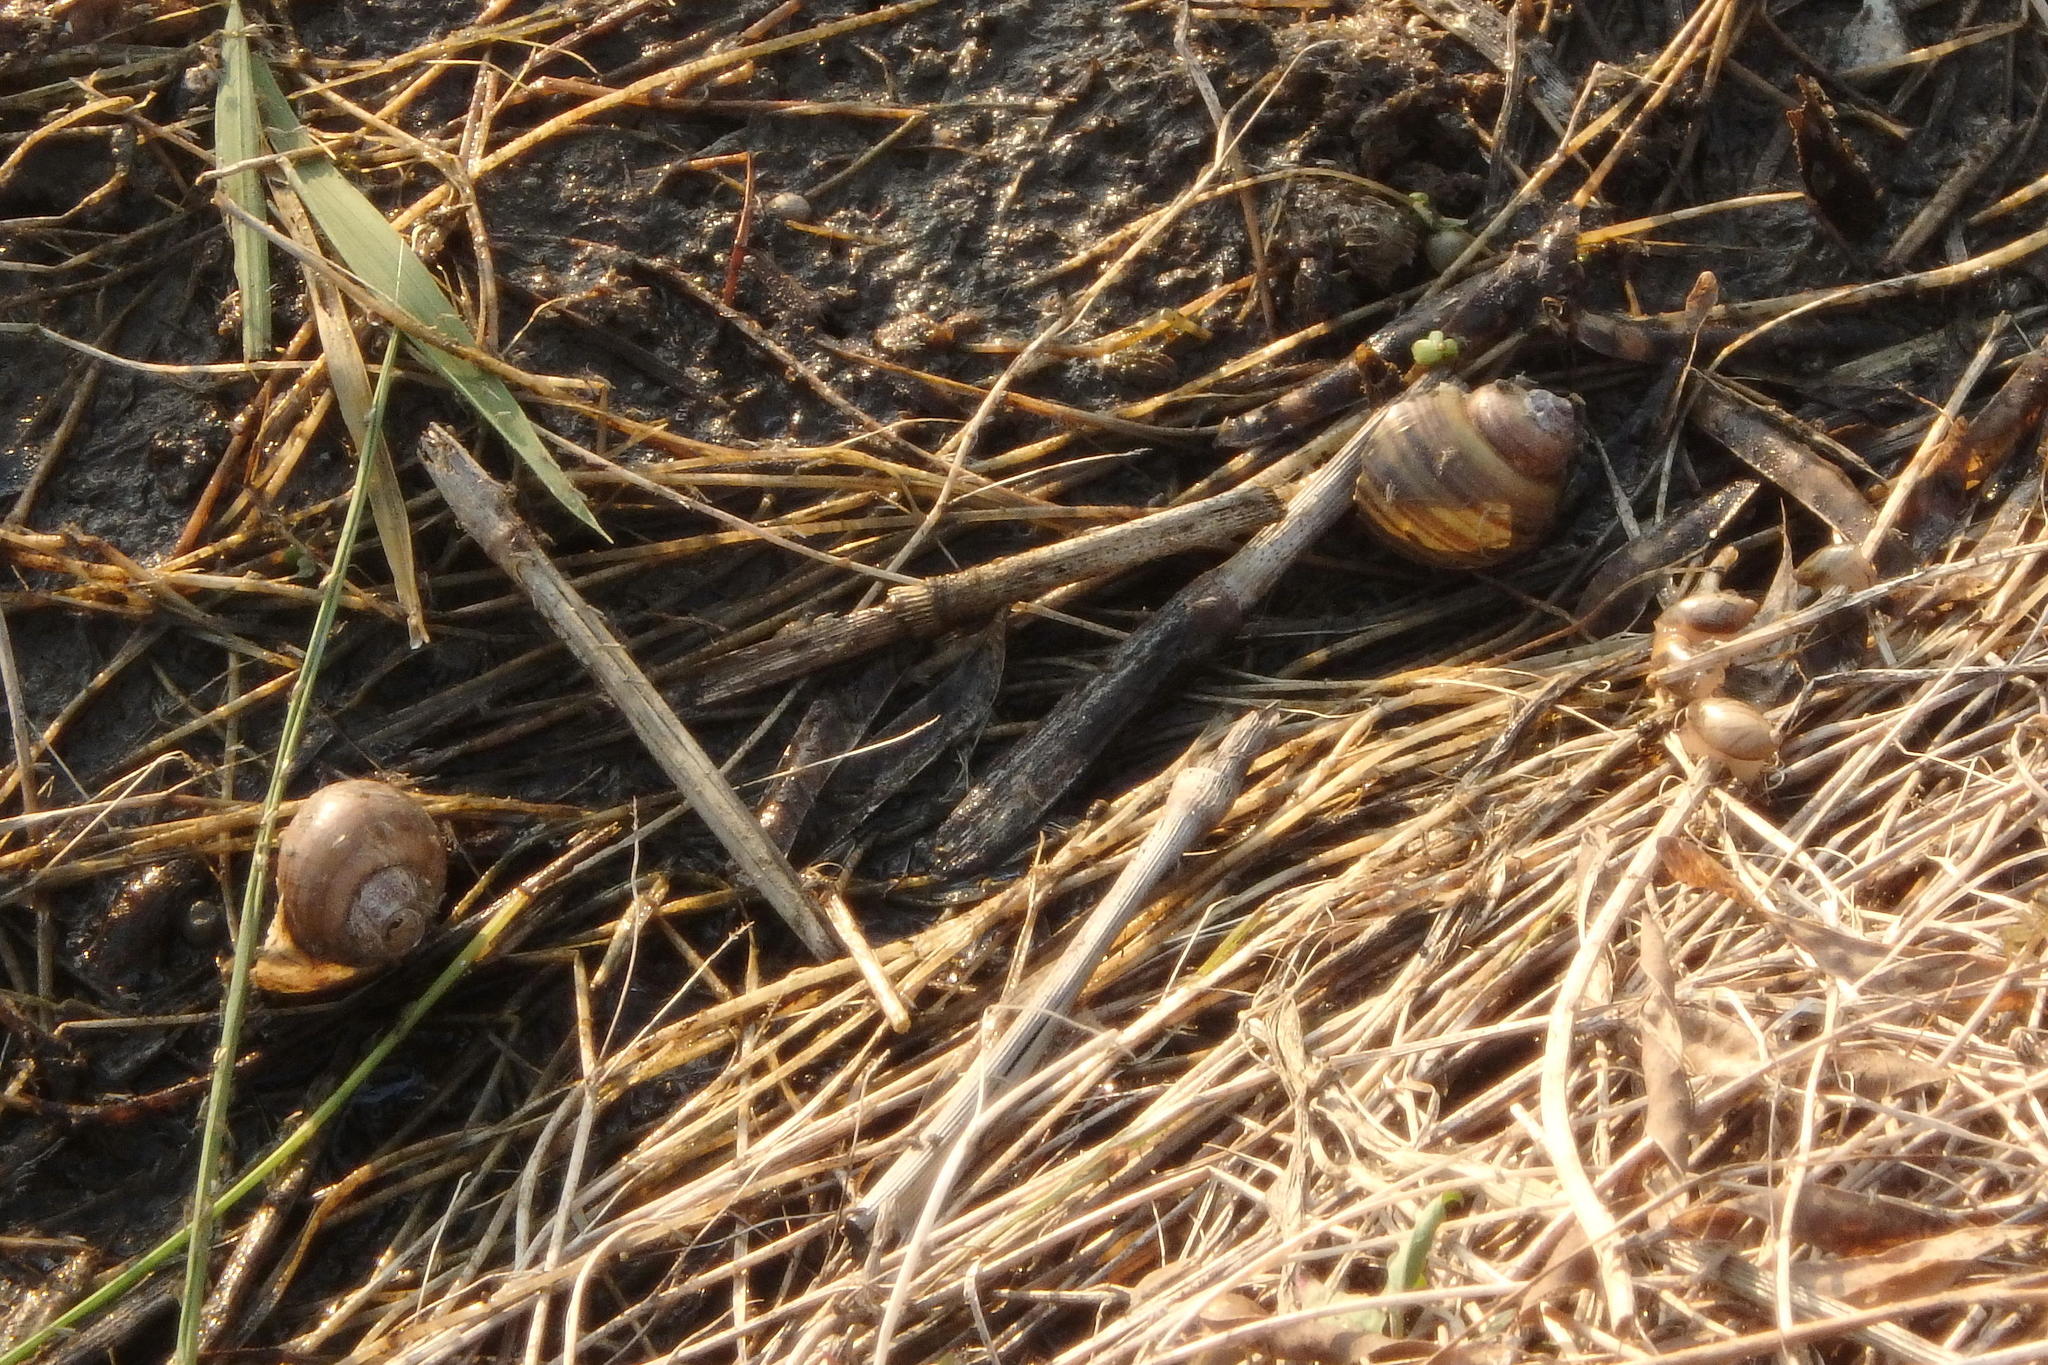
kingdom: Animalia
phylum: Mollusca
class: Gastropoda
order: Architaenioglossa
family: Ampullariidae
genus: Pomacea
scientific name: Pomacea canaliculata
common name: Channeled applesnail
